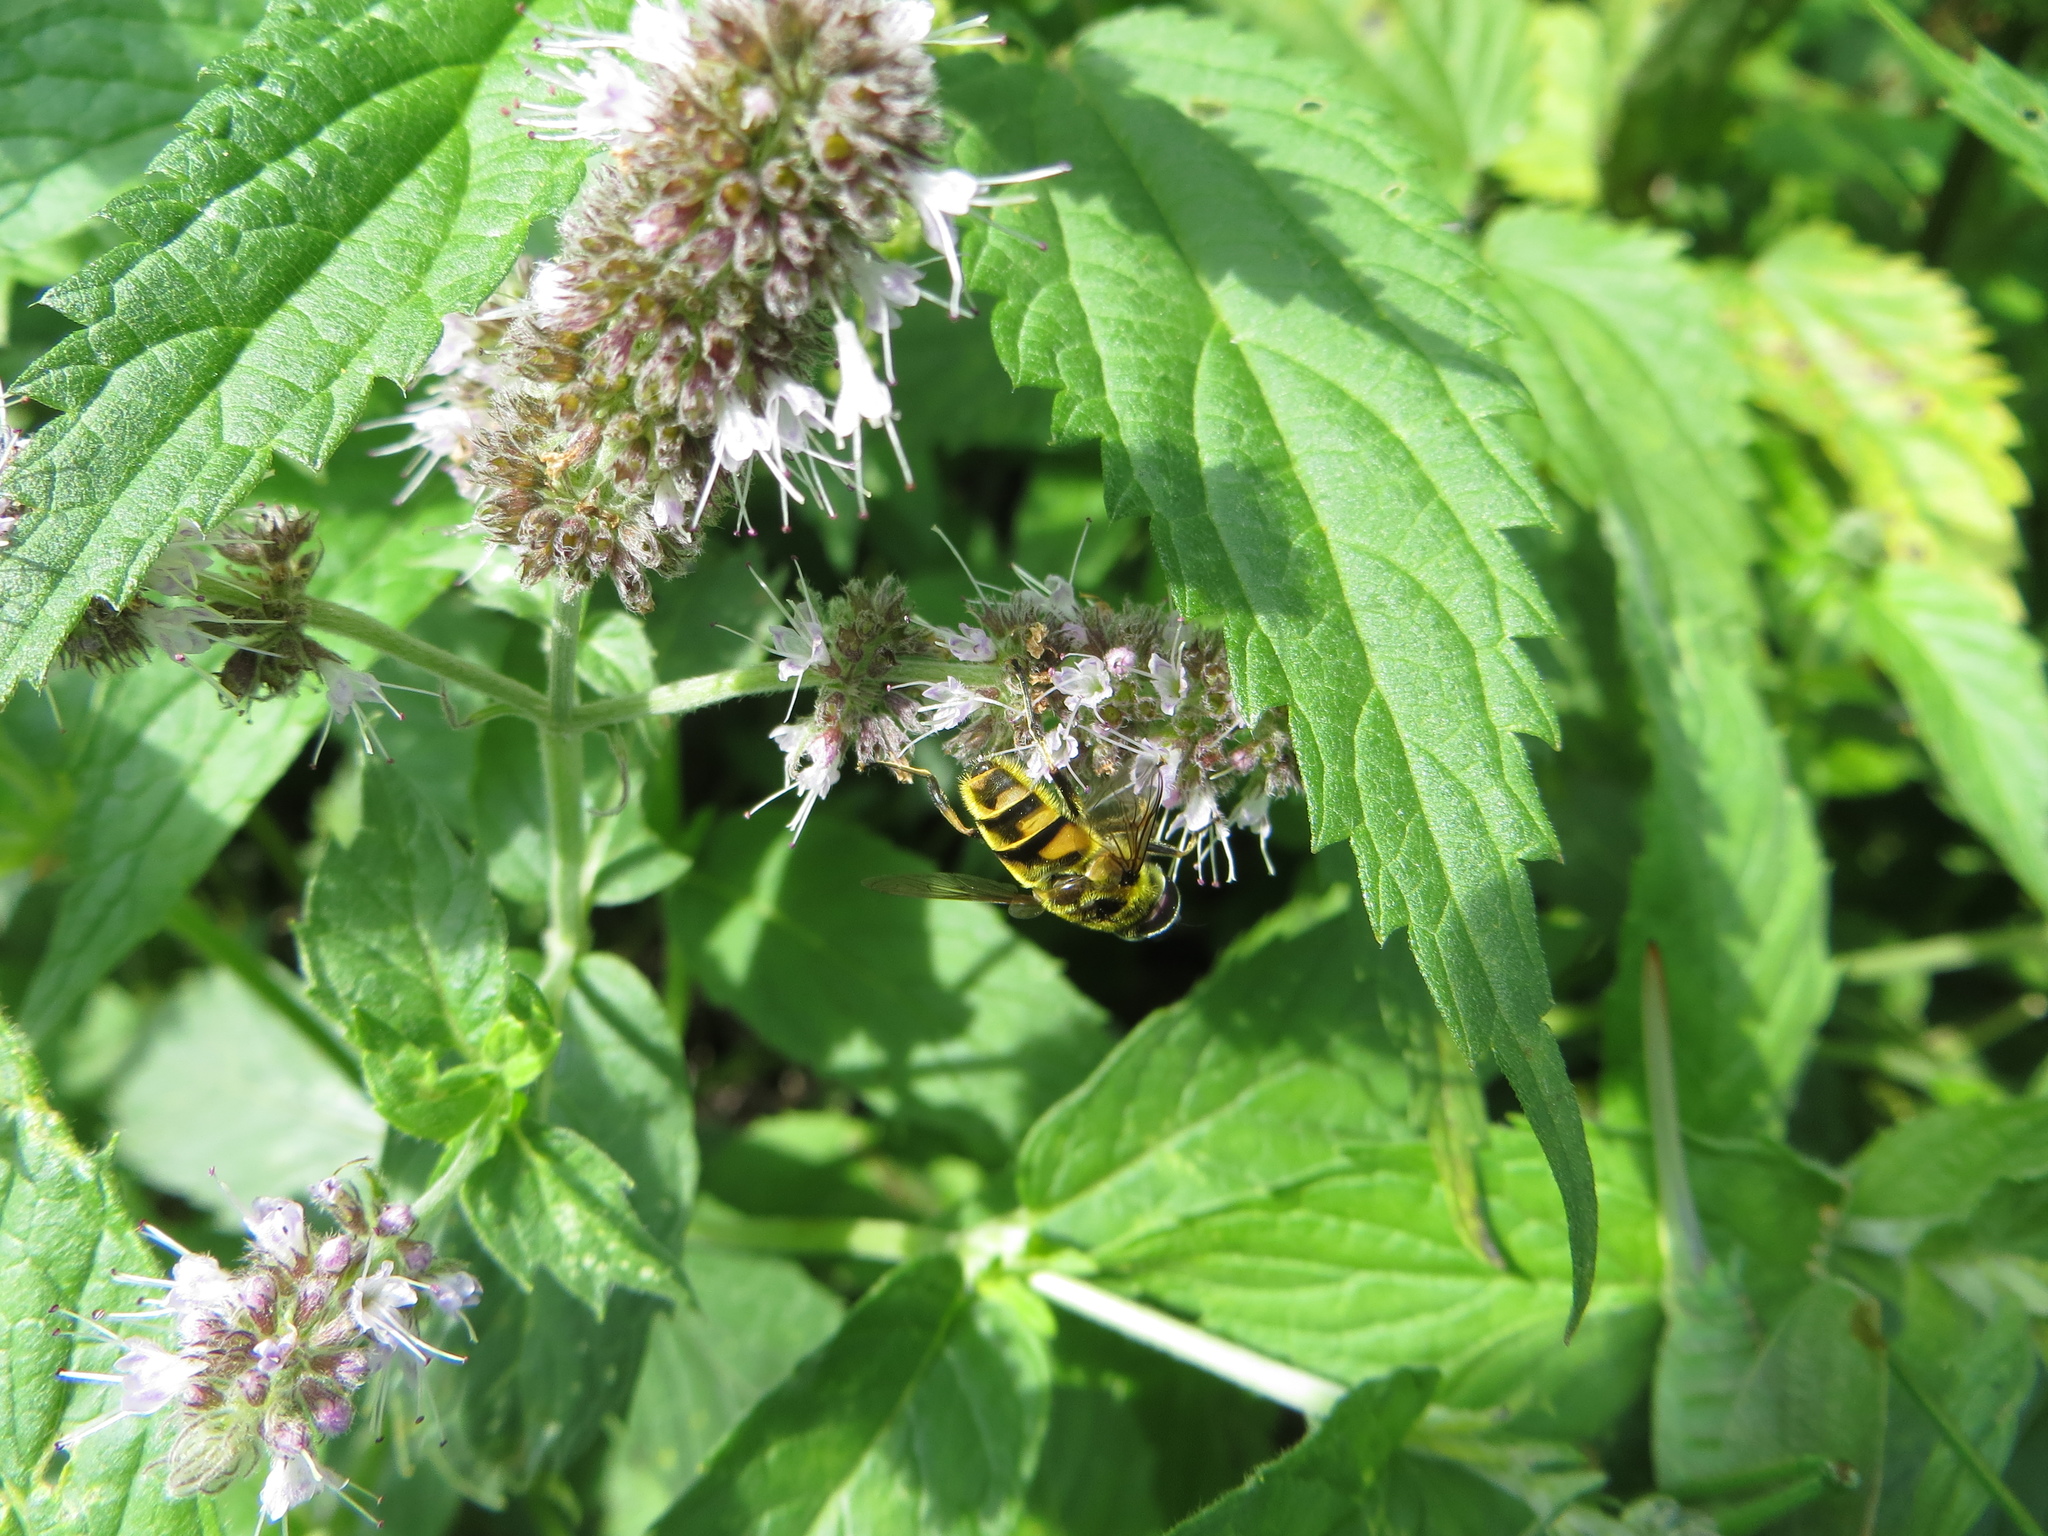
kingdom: Animalia
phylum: Arthropoda
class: Insecta
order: Diptera
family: Syrphidae
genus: Myathropa
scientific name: Myathropa florea
